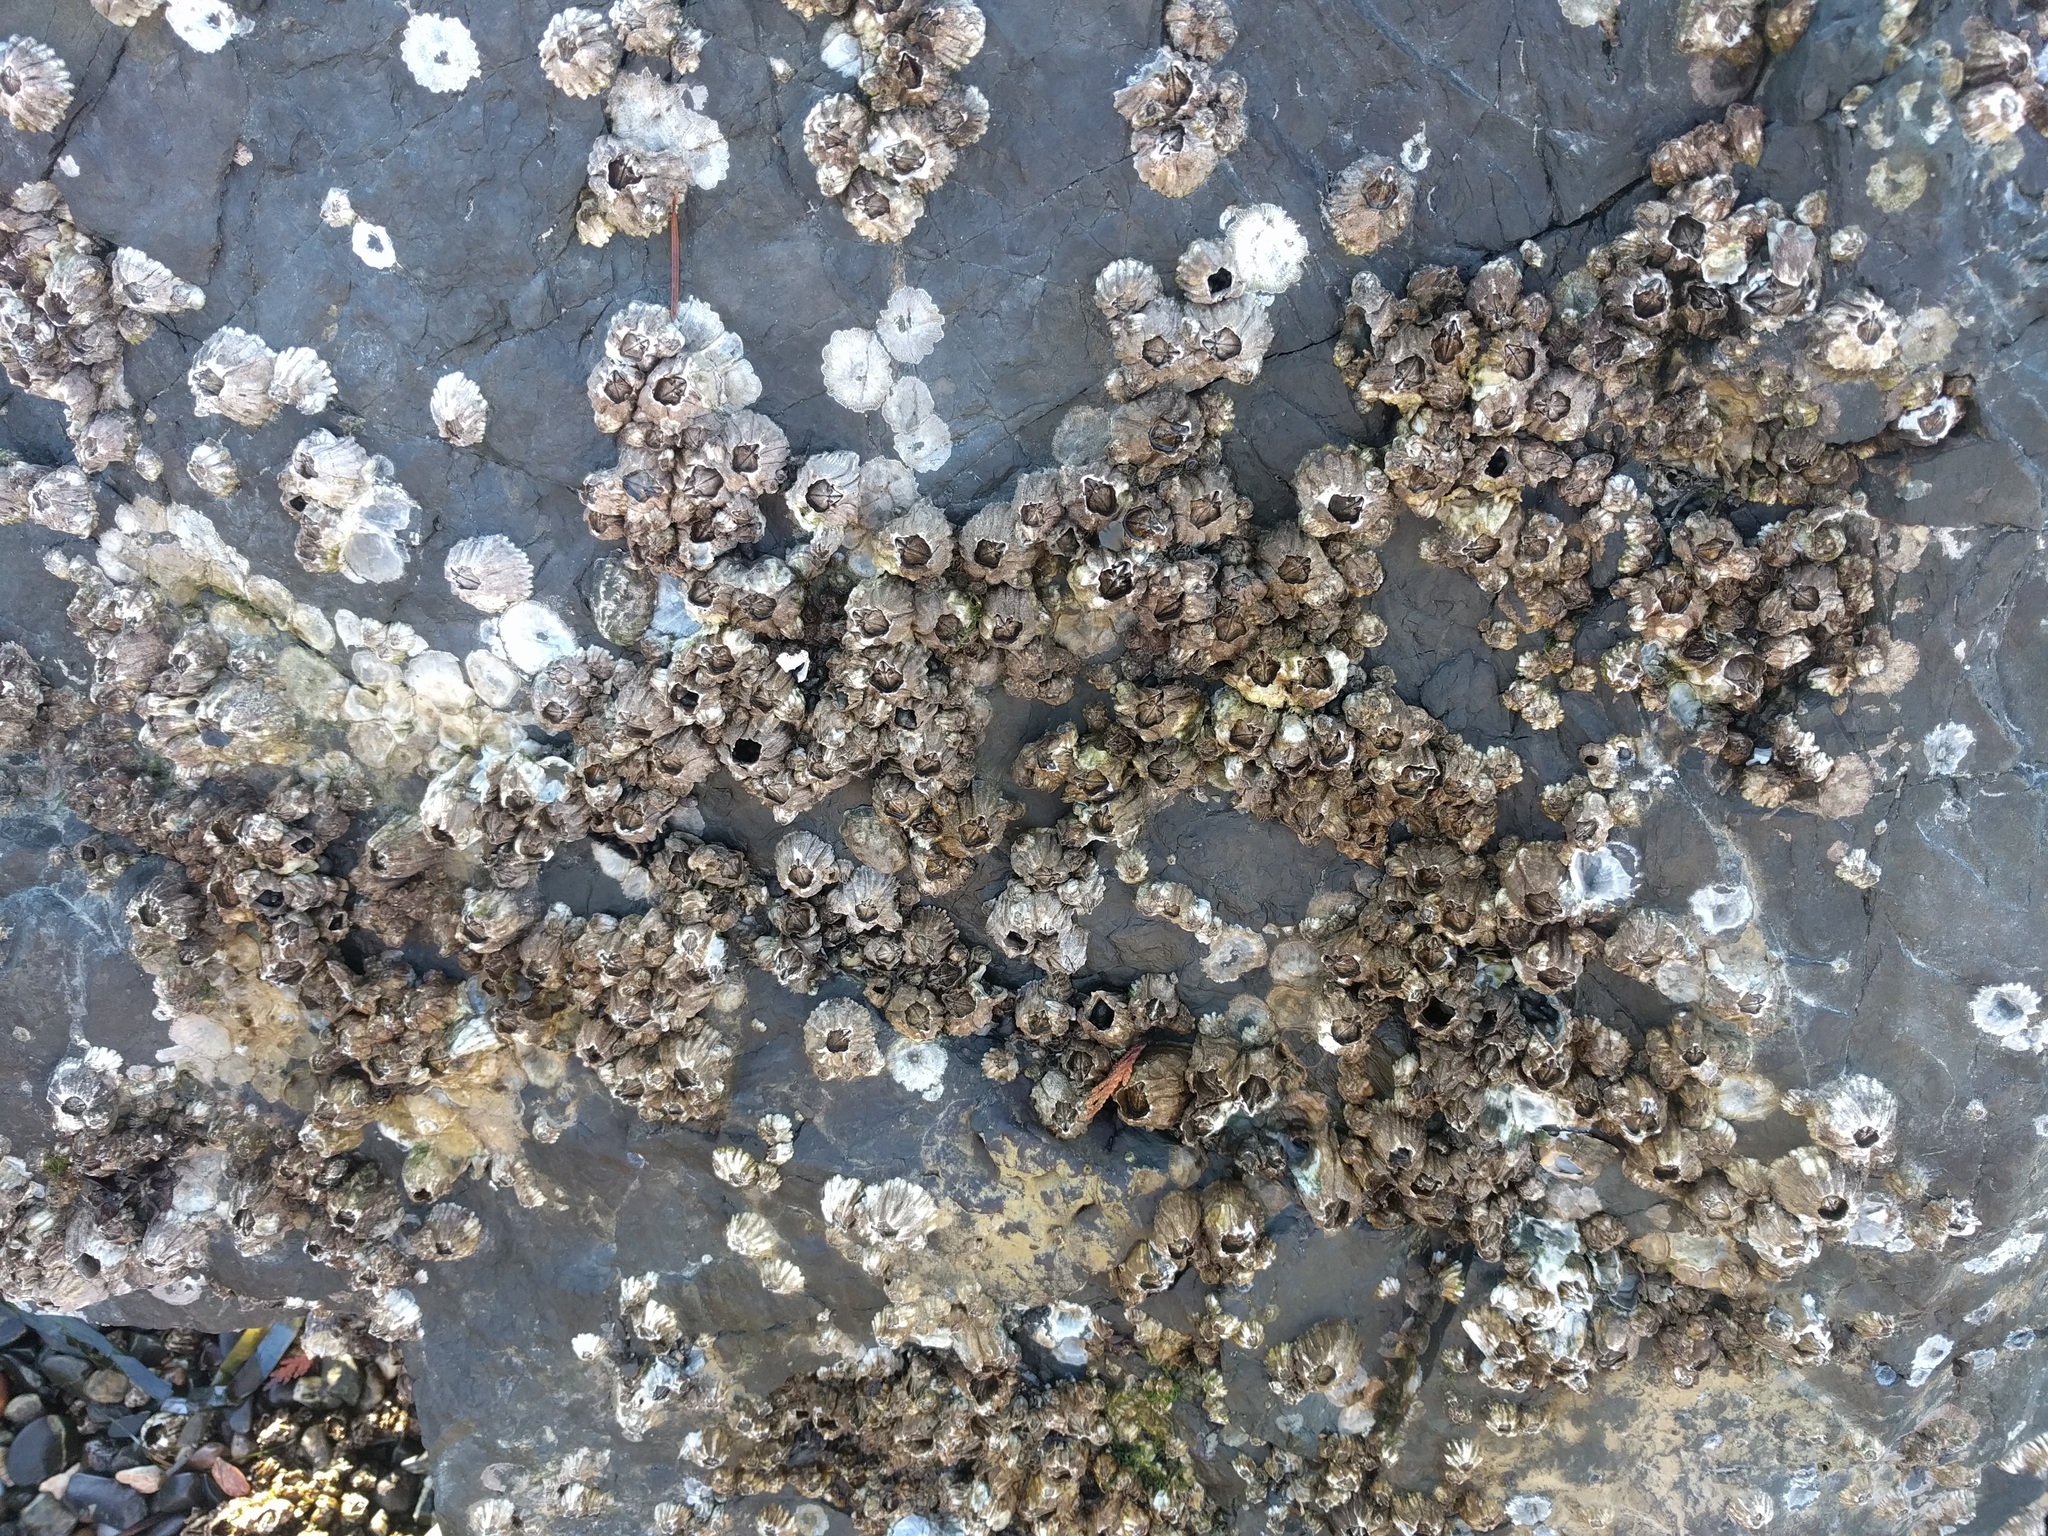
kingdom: Animalia
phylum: Arthropoda
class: Maxillopoda
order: Sessilia
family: Balanidae
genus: Balanus
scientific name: Balanus glandula
